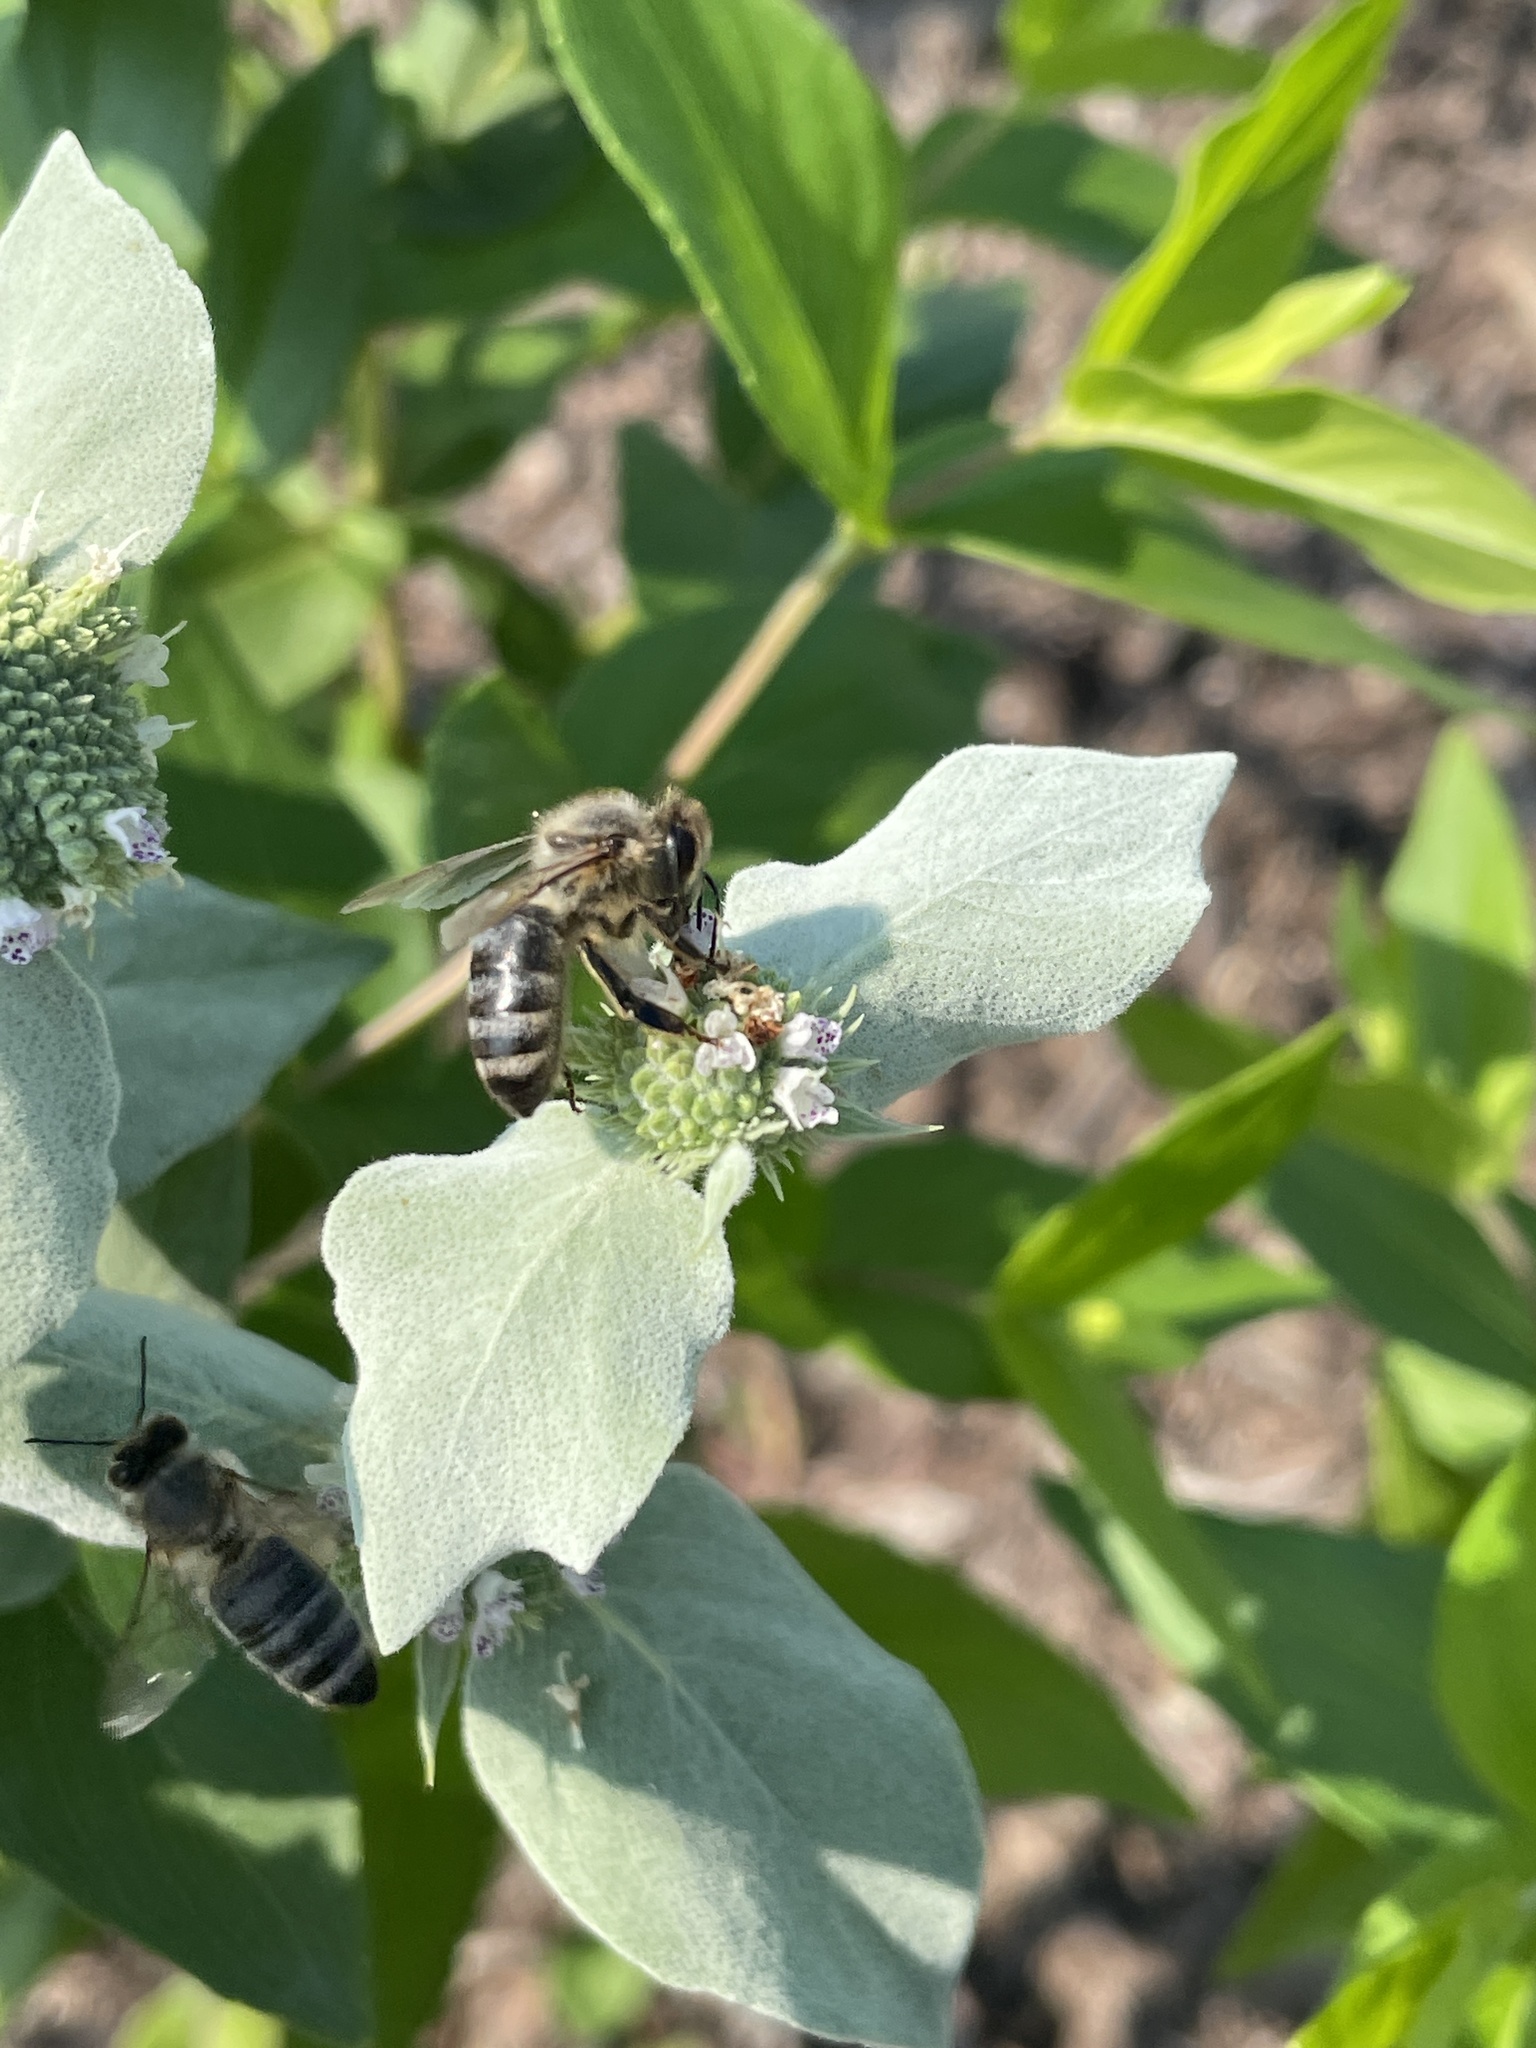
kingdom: Animalia
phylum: Arthropoda
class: Insecta
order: Hymenoptera
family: Apidae
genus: Apis
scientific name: Apis mellifera
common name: Honey bee
